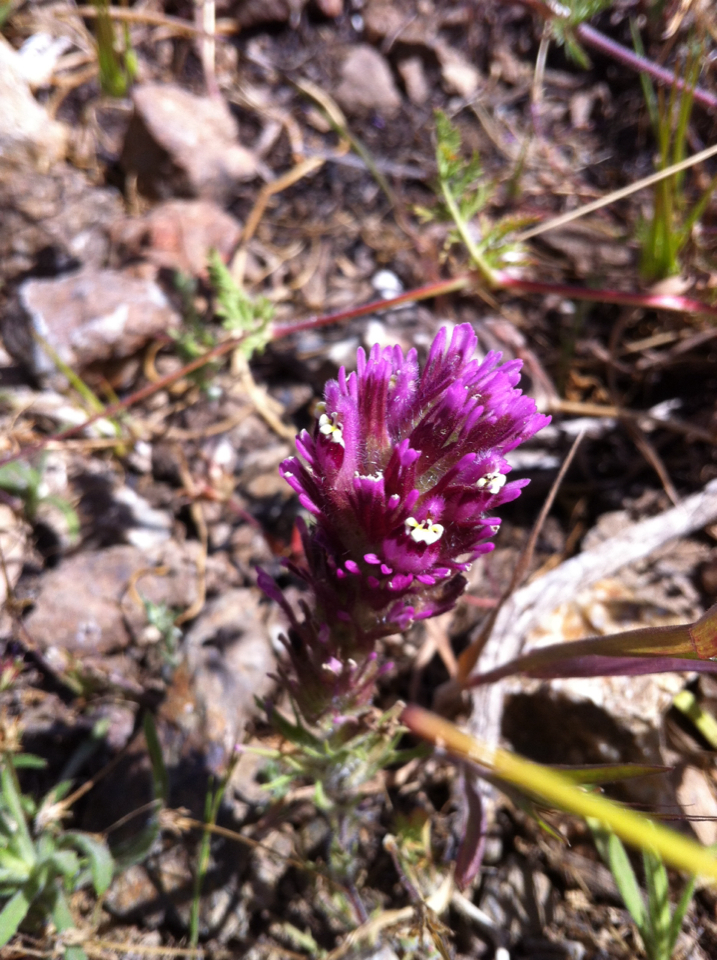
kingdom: Plantae
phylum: Tracheophyta
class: Magnoliopsida
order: Lamiales
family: Orobanchaceae
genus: Castilleja
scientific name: Castilleja exserta
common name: Purple owl-clover
